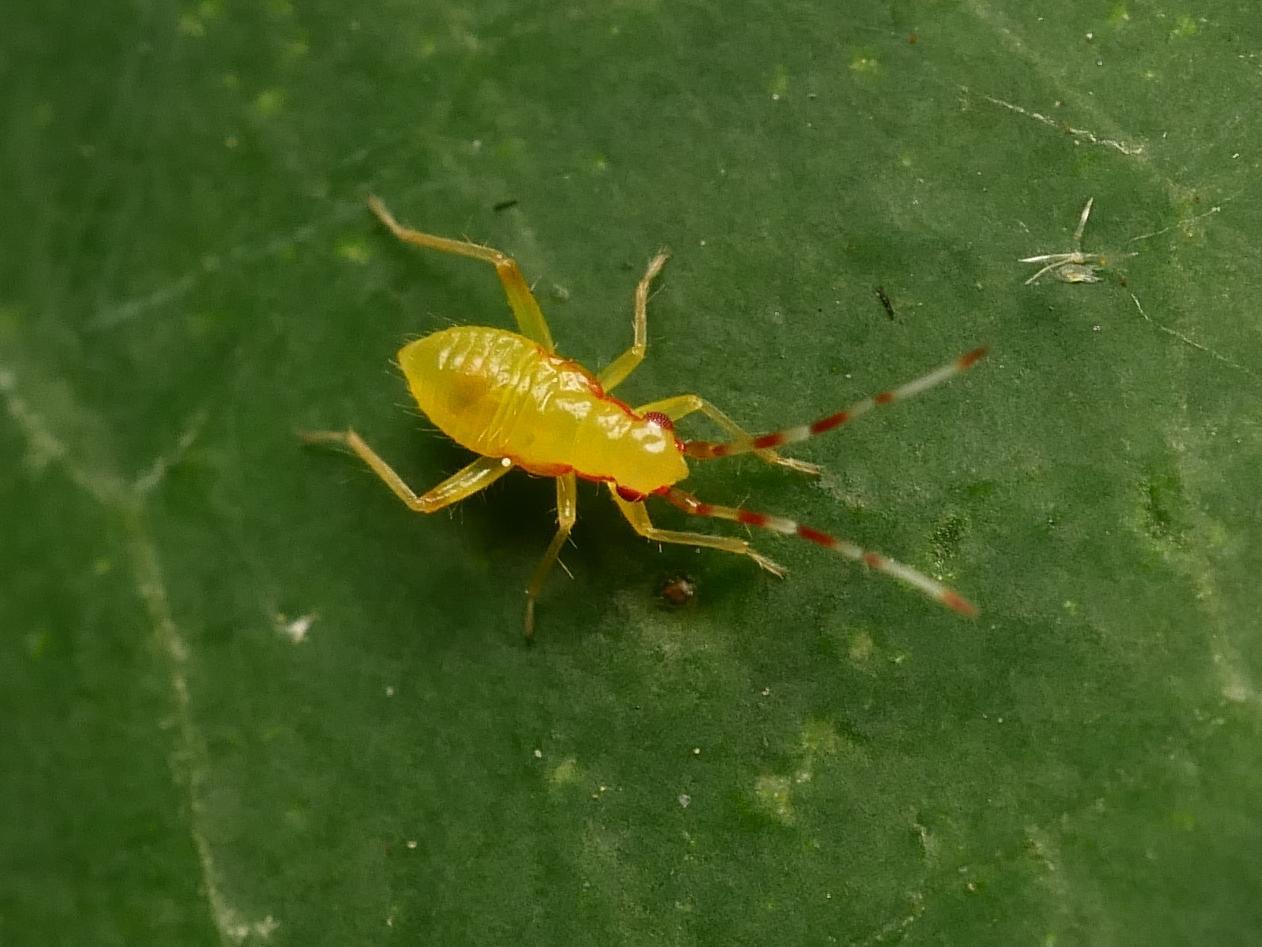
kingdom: Animalia
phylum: Arthropoda
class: Insecta
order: Hemiptera
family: Miridae
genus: Campyloneura
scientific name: Campyloneura virgula
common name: Predatory bug
